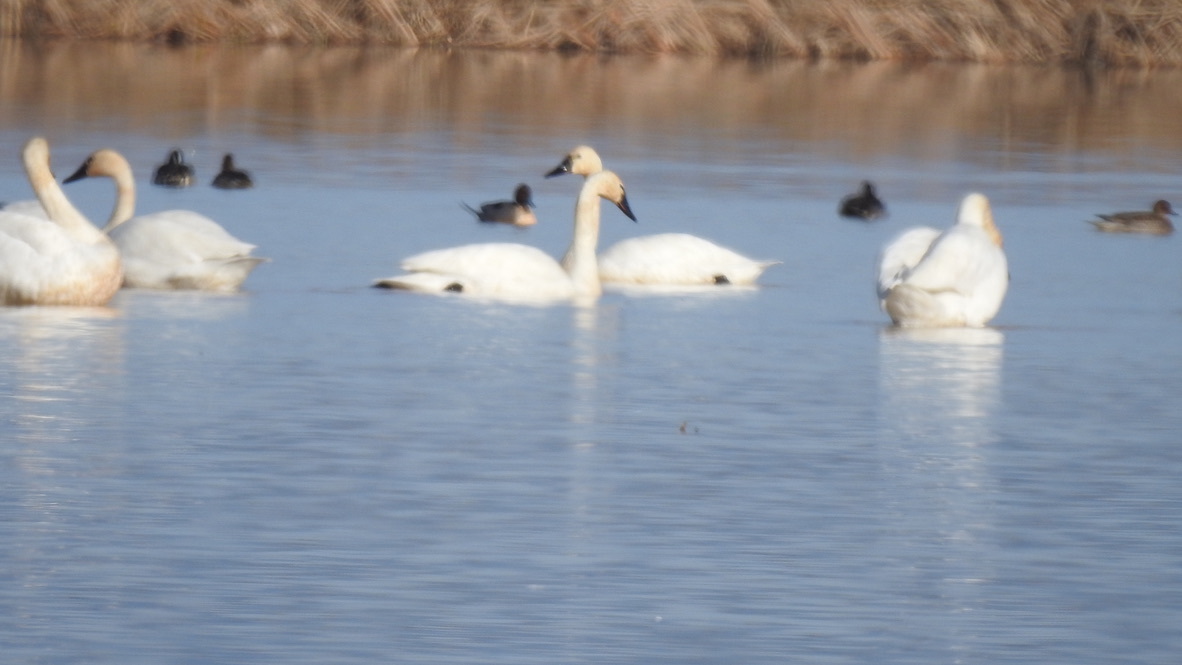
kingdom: Animalia
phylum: Chordata
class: Aves
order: Anseriformes
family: Anatidae
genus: Cygnus
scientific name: Cygnus columbianus
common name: Tundra swan
